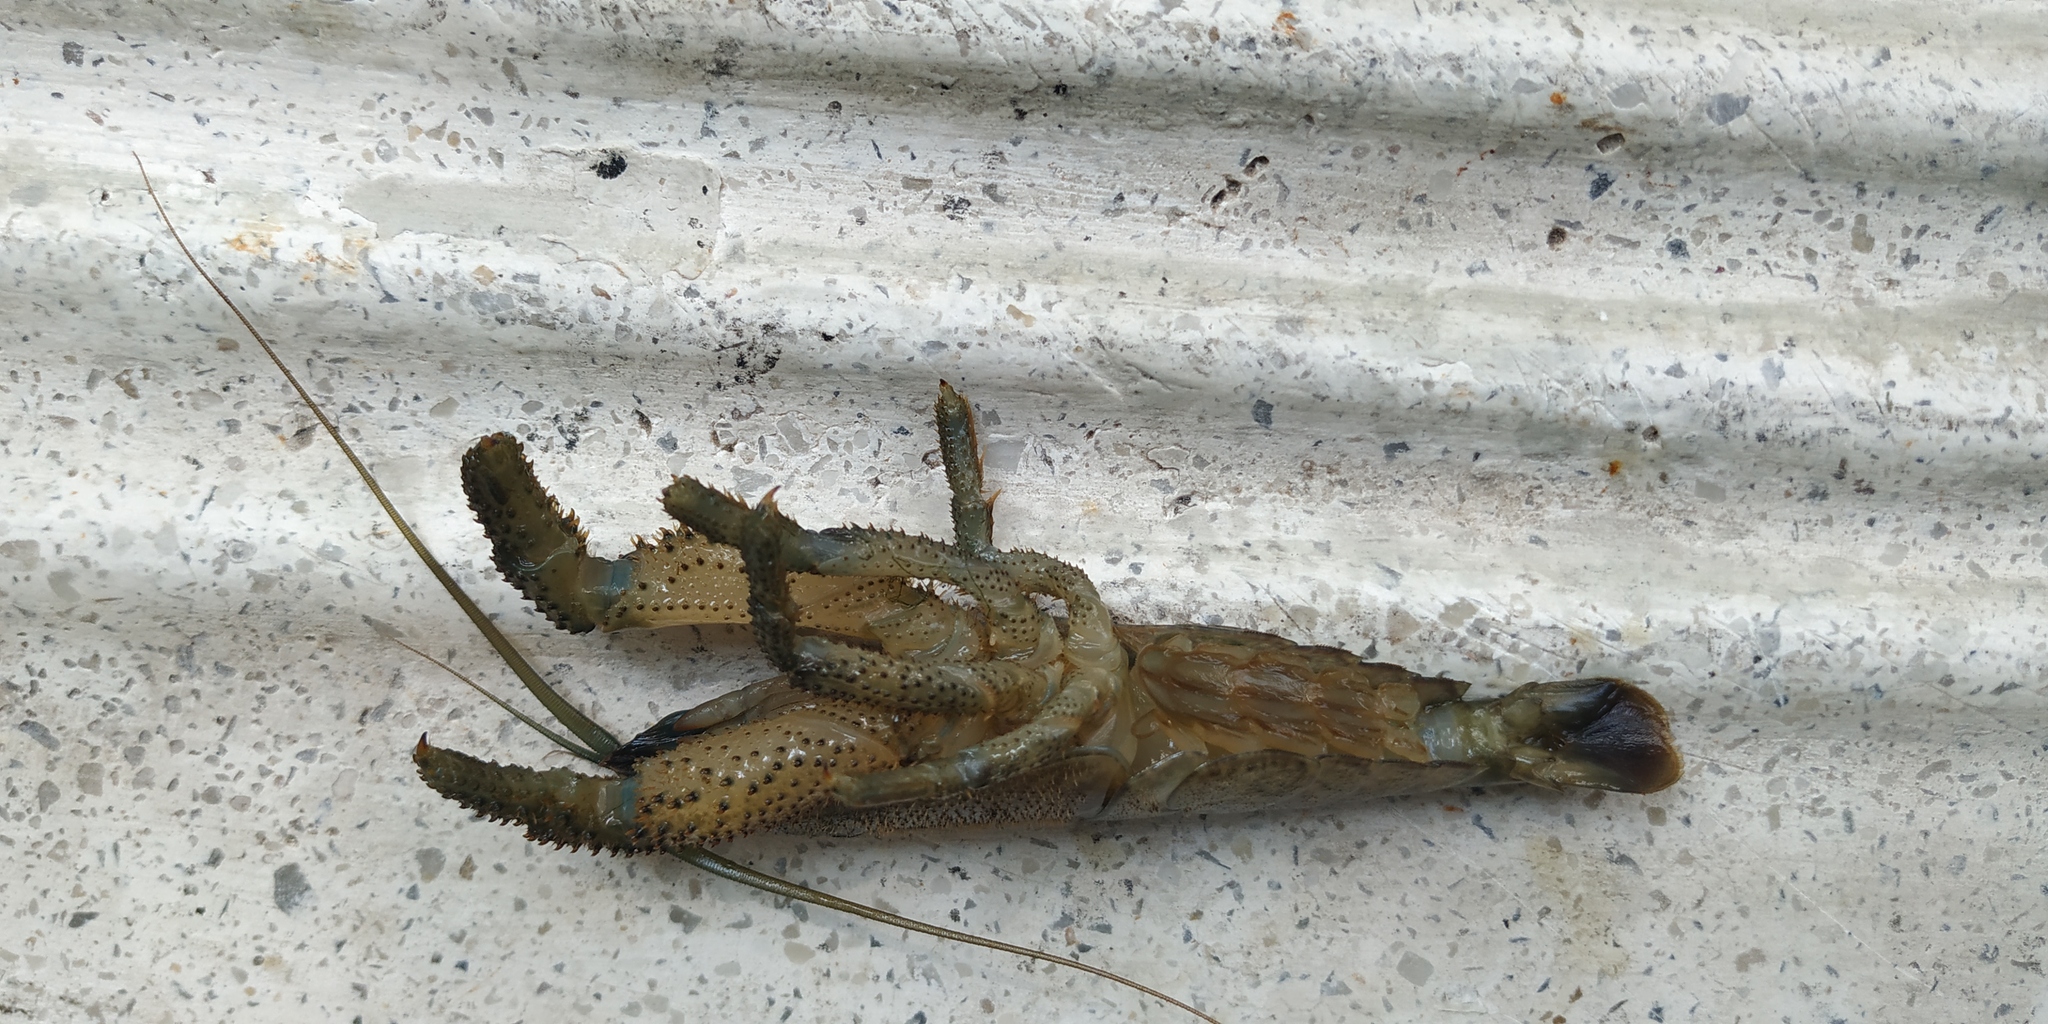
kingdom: Animalia
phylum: Arthropoda
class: Malacostraca
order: Decapoda
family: Atyidae
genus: Atya
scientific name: Atya scabra
